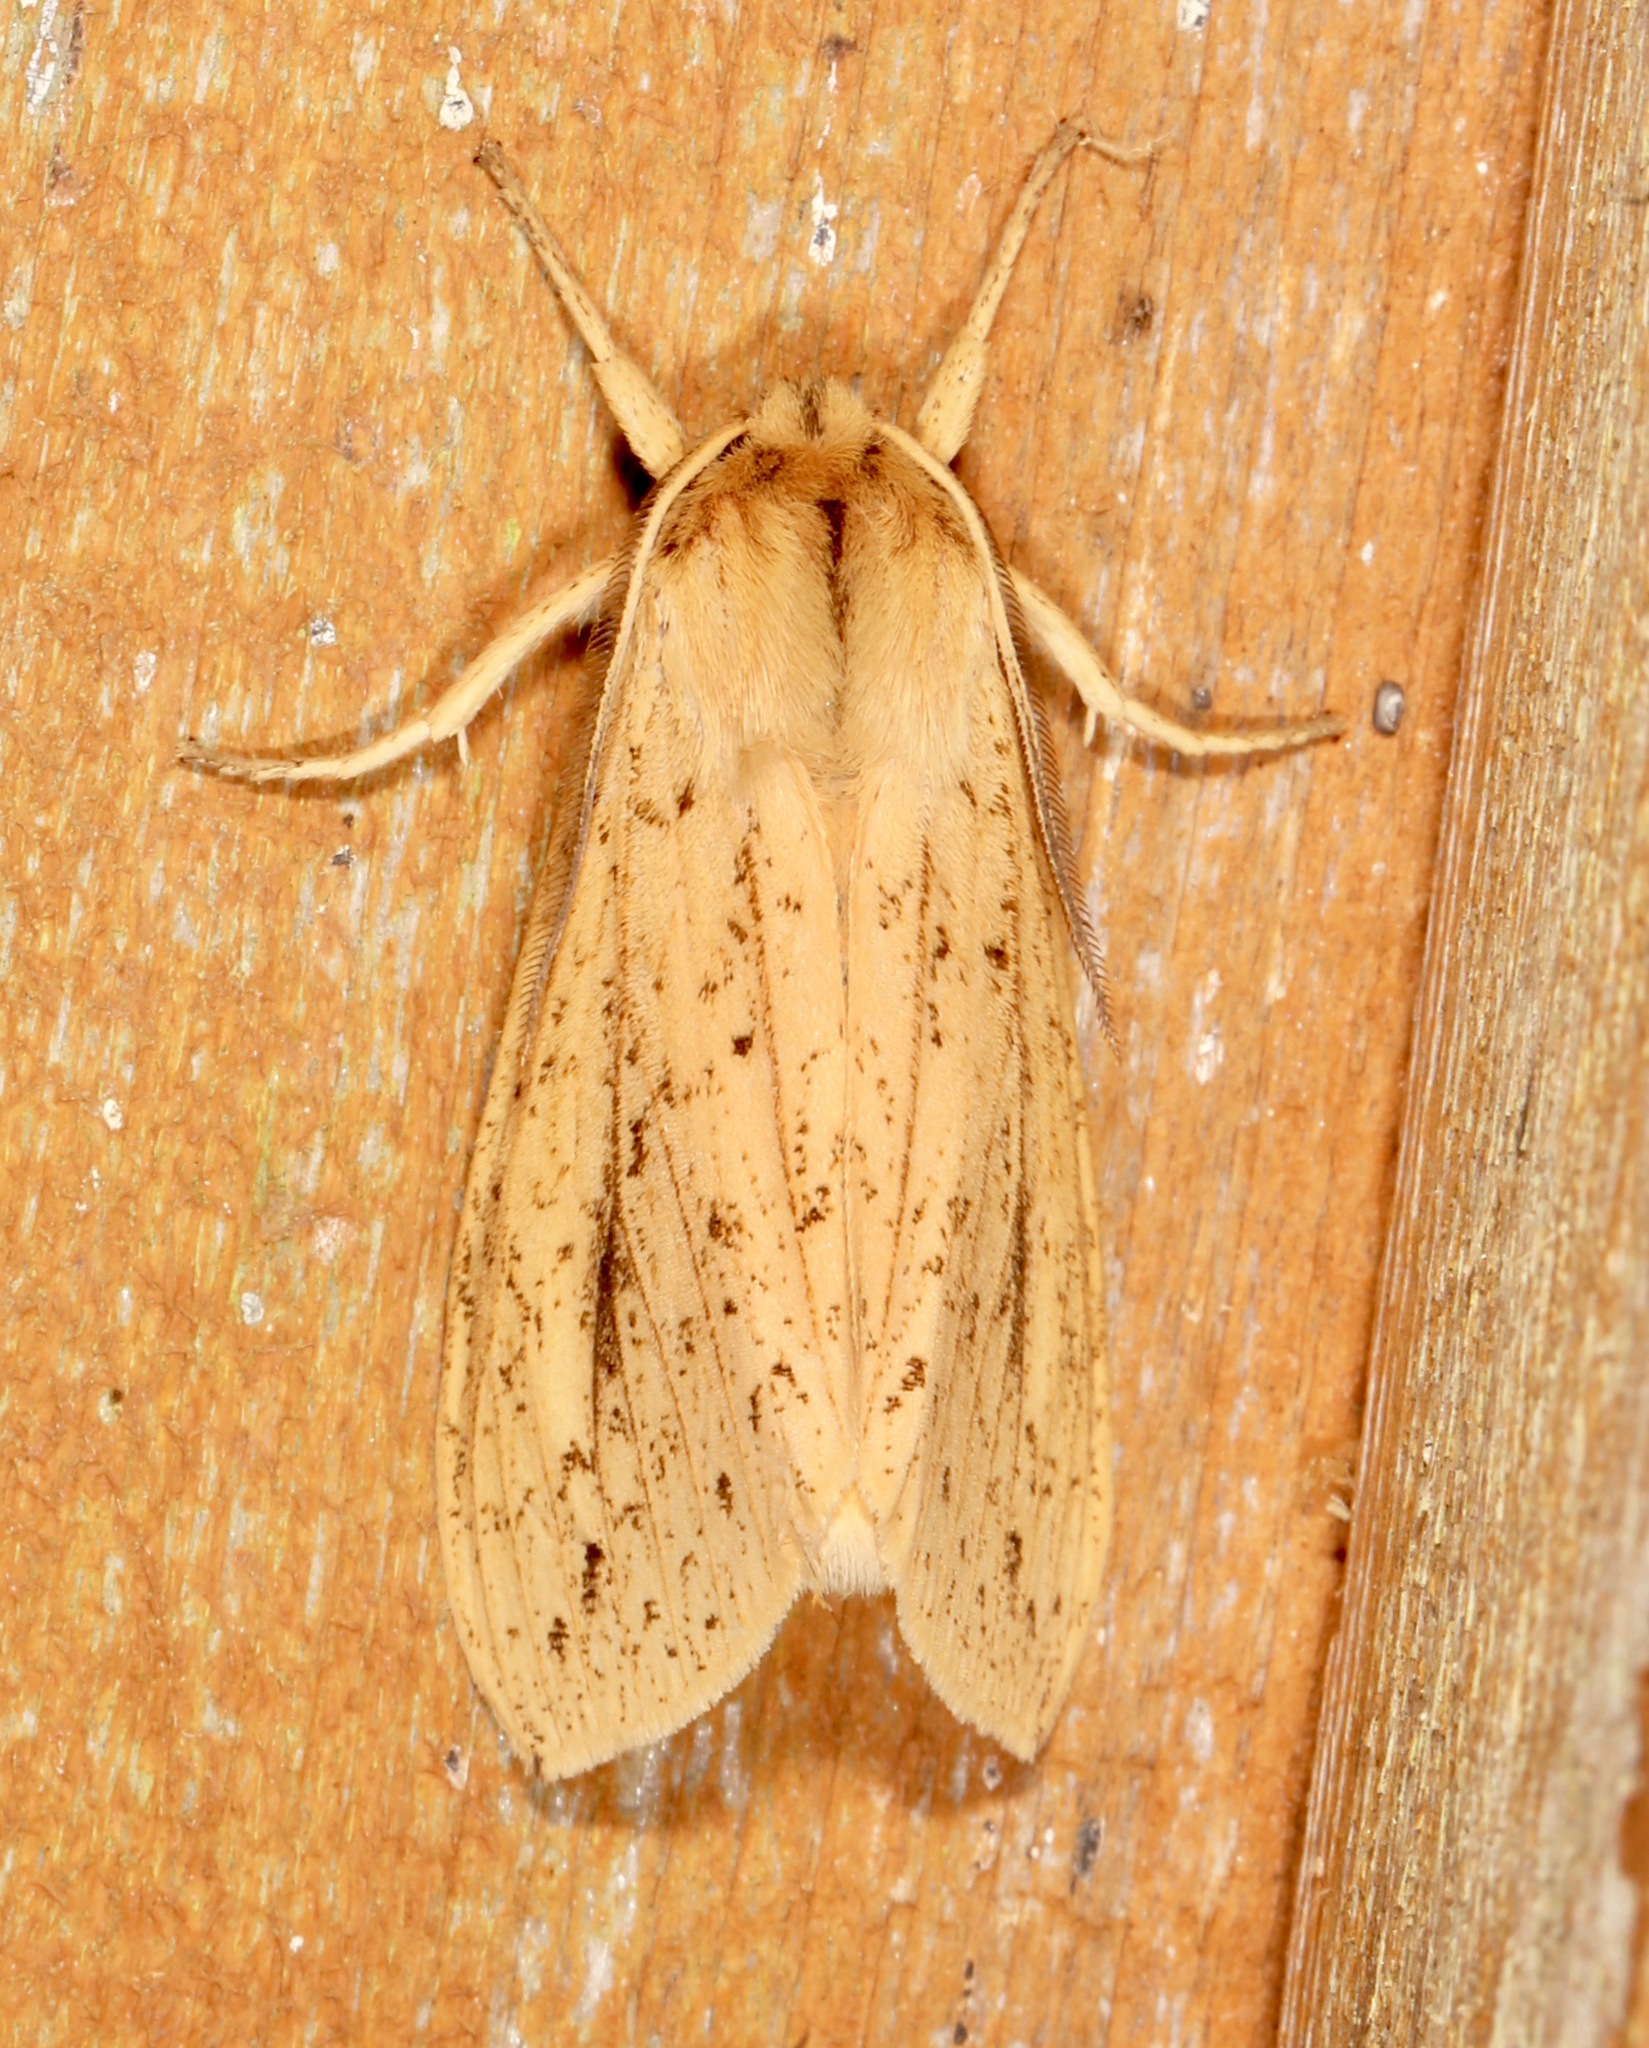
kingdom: Animalia
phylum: Arthropoda
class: Insecta
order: Lepidoptera
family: Erebidae
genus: Leucanopsis
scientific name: Leucanopsis longa
